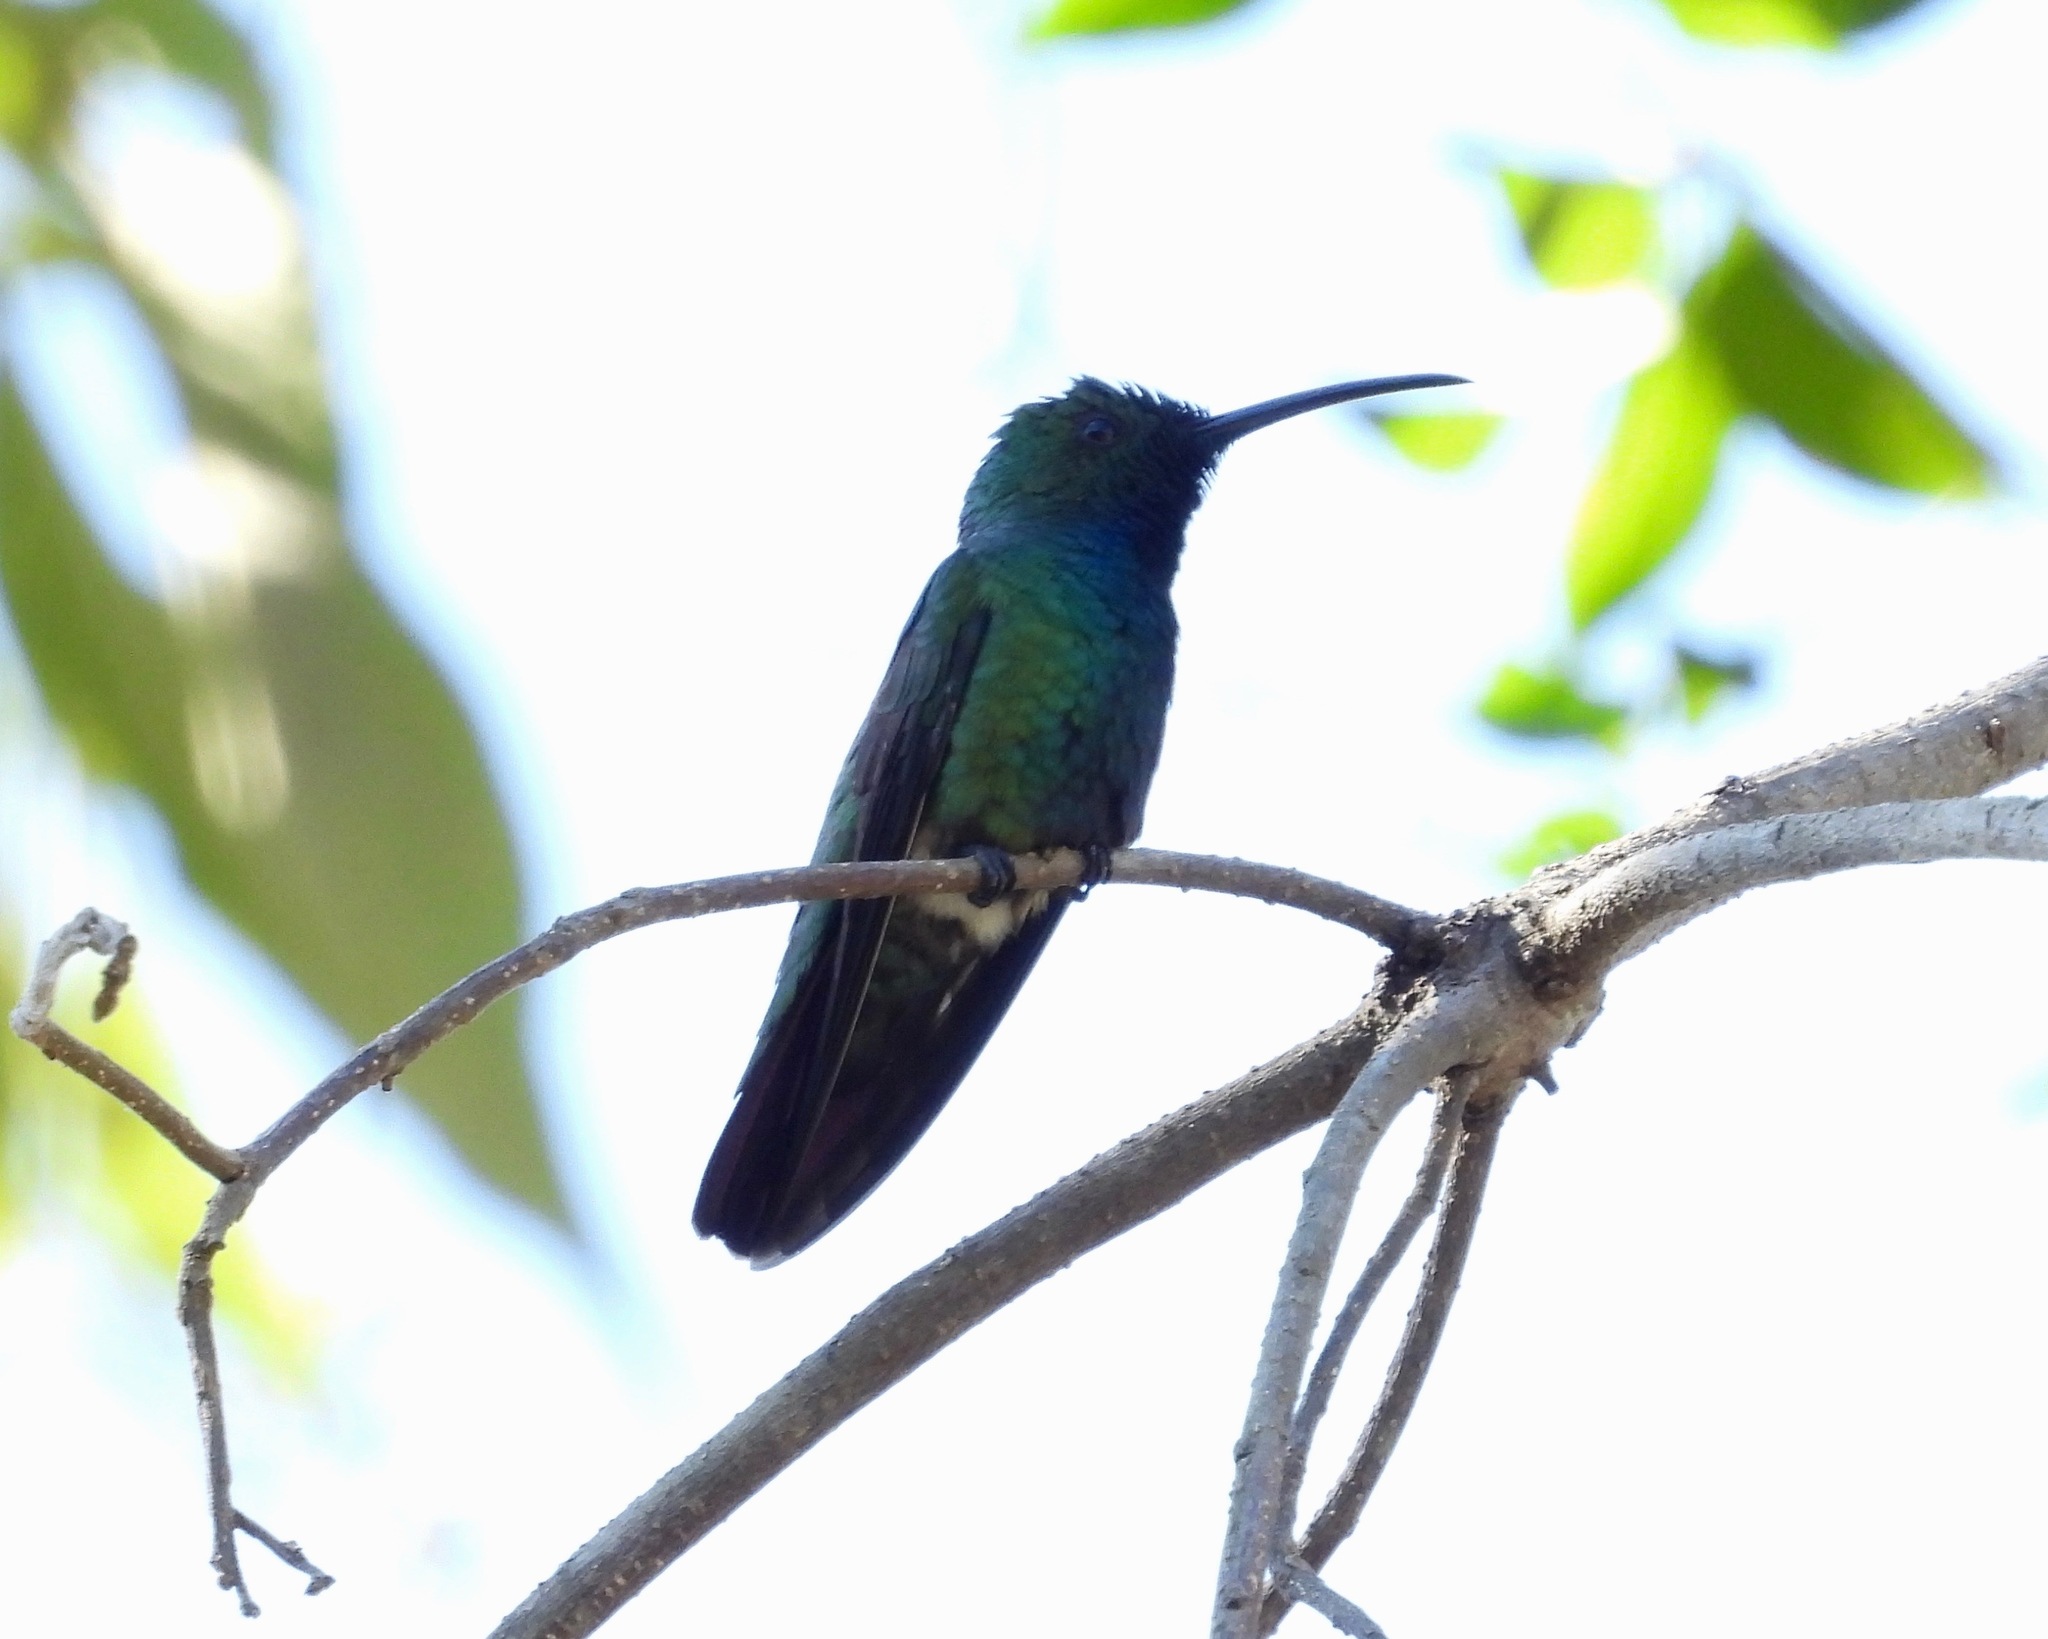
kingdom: Animalia
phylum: Chordata
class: Aves
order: Apodiformes
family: Trochilidae
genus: Anthracothorax
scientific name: Anthracothorax prevostii
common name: Green-breasted mango
